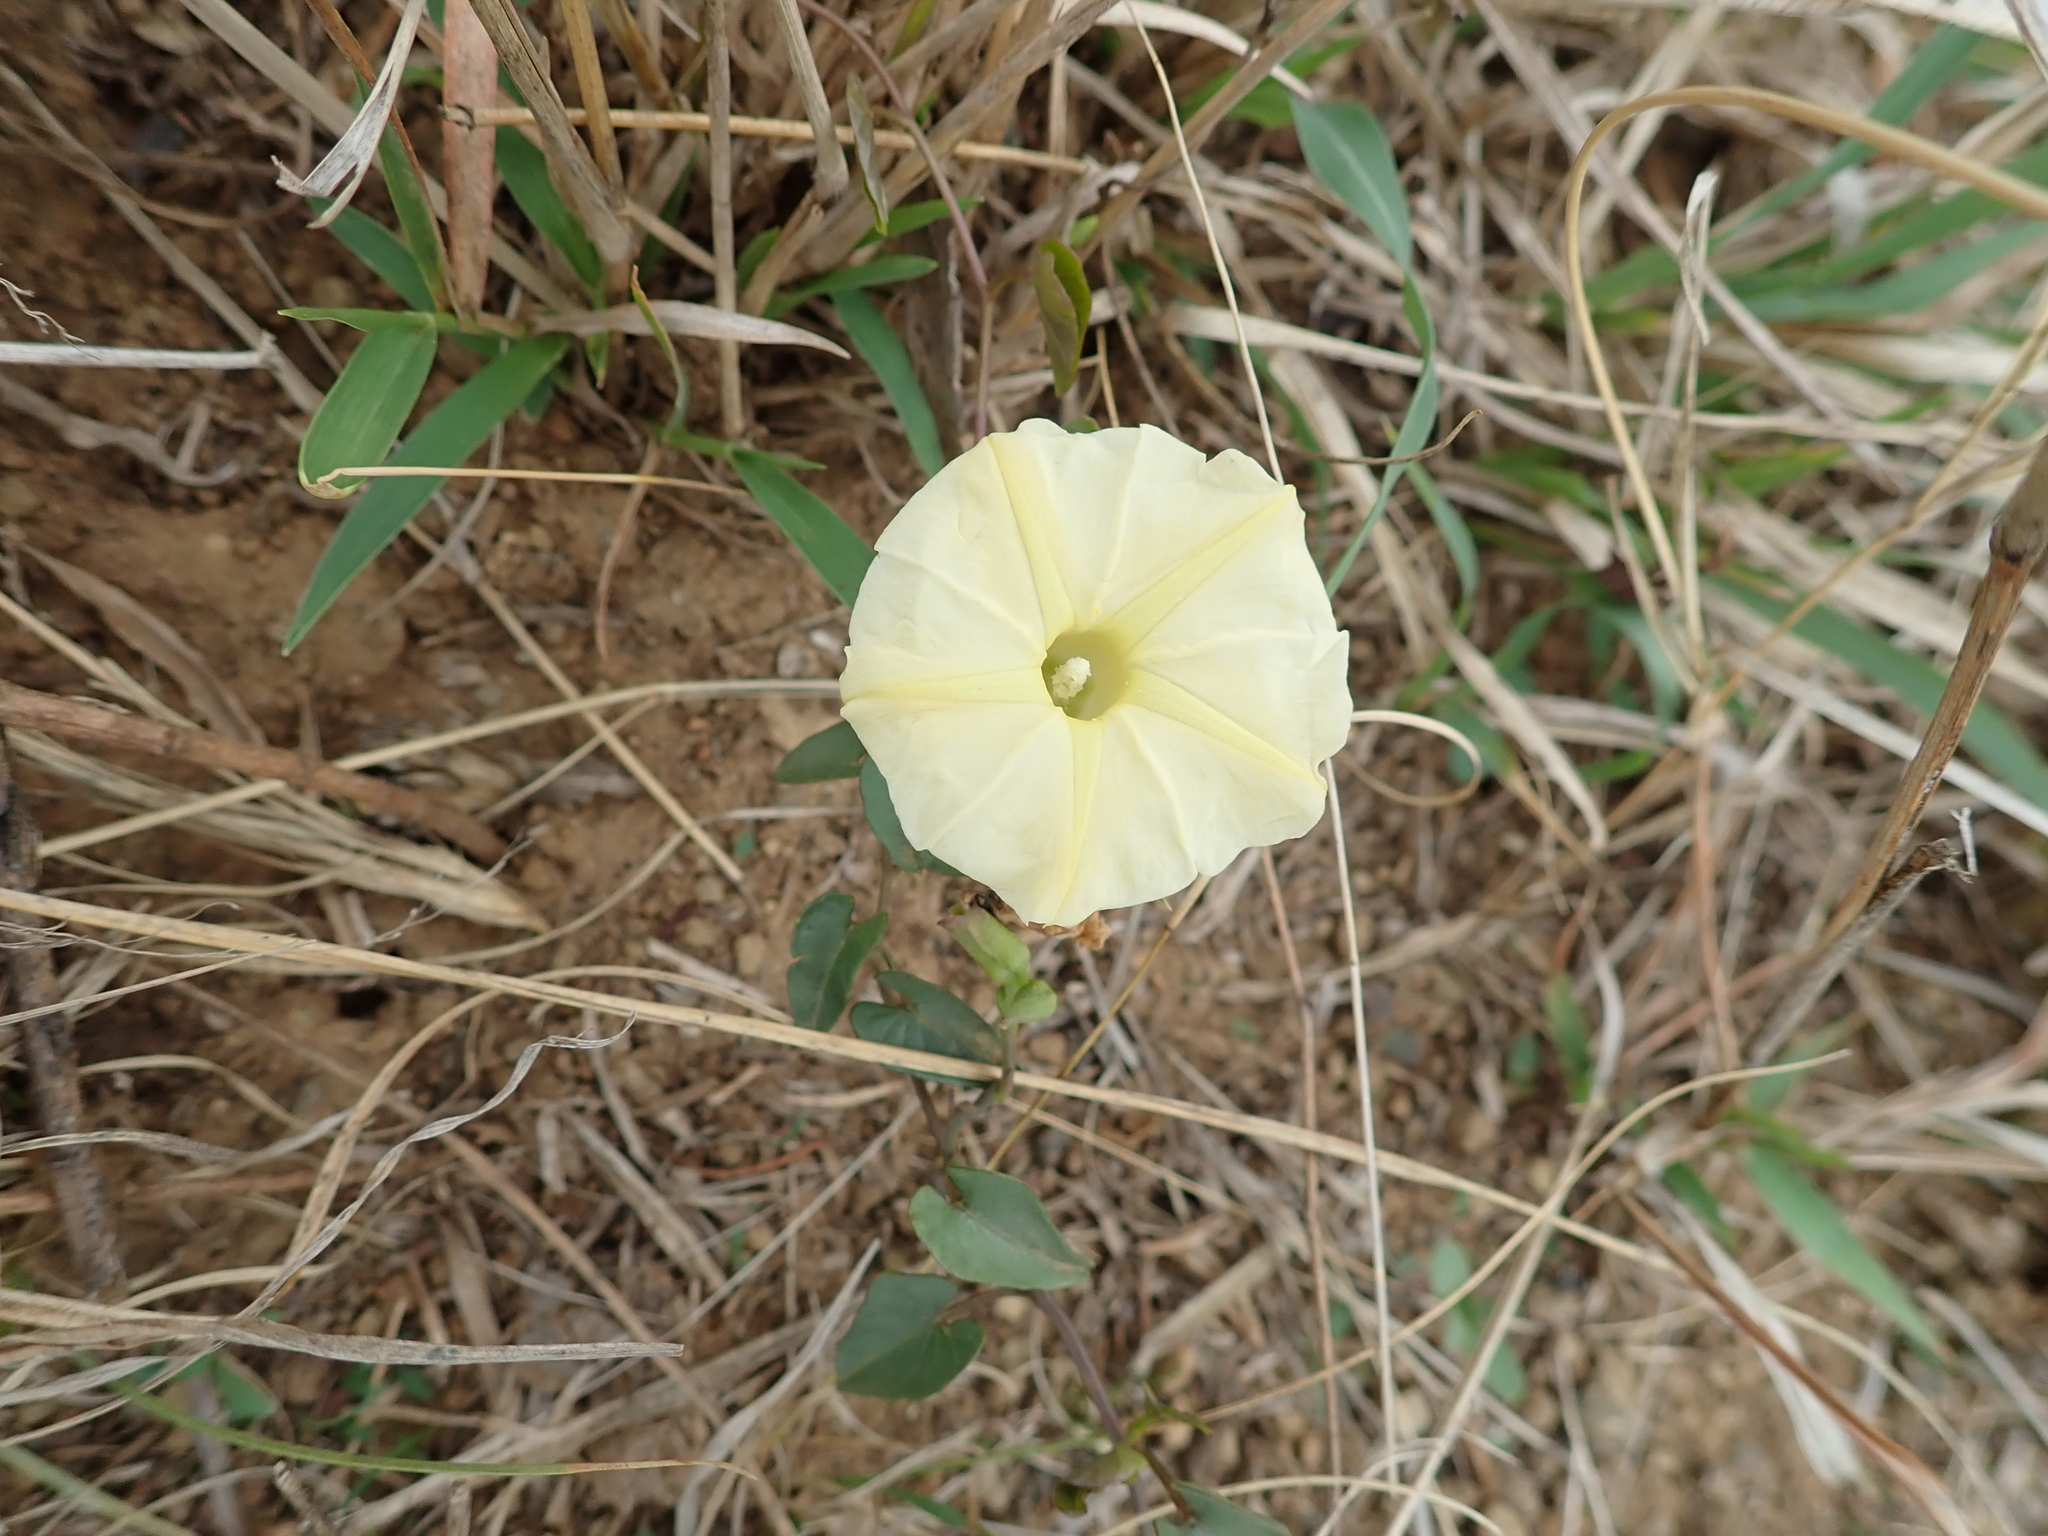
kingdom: Plantae
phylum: Tracheophyta
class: Magnoliopsida
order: Solanales
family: Convolvulaceae
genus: Ipomoea
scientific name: Ipomoea obscura
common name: Obscure morning-glory
